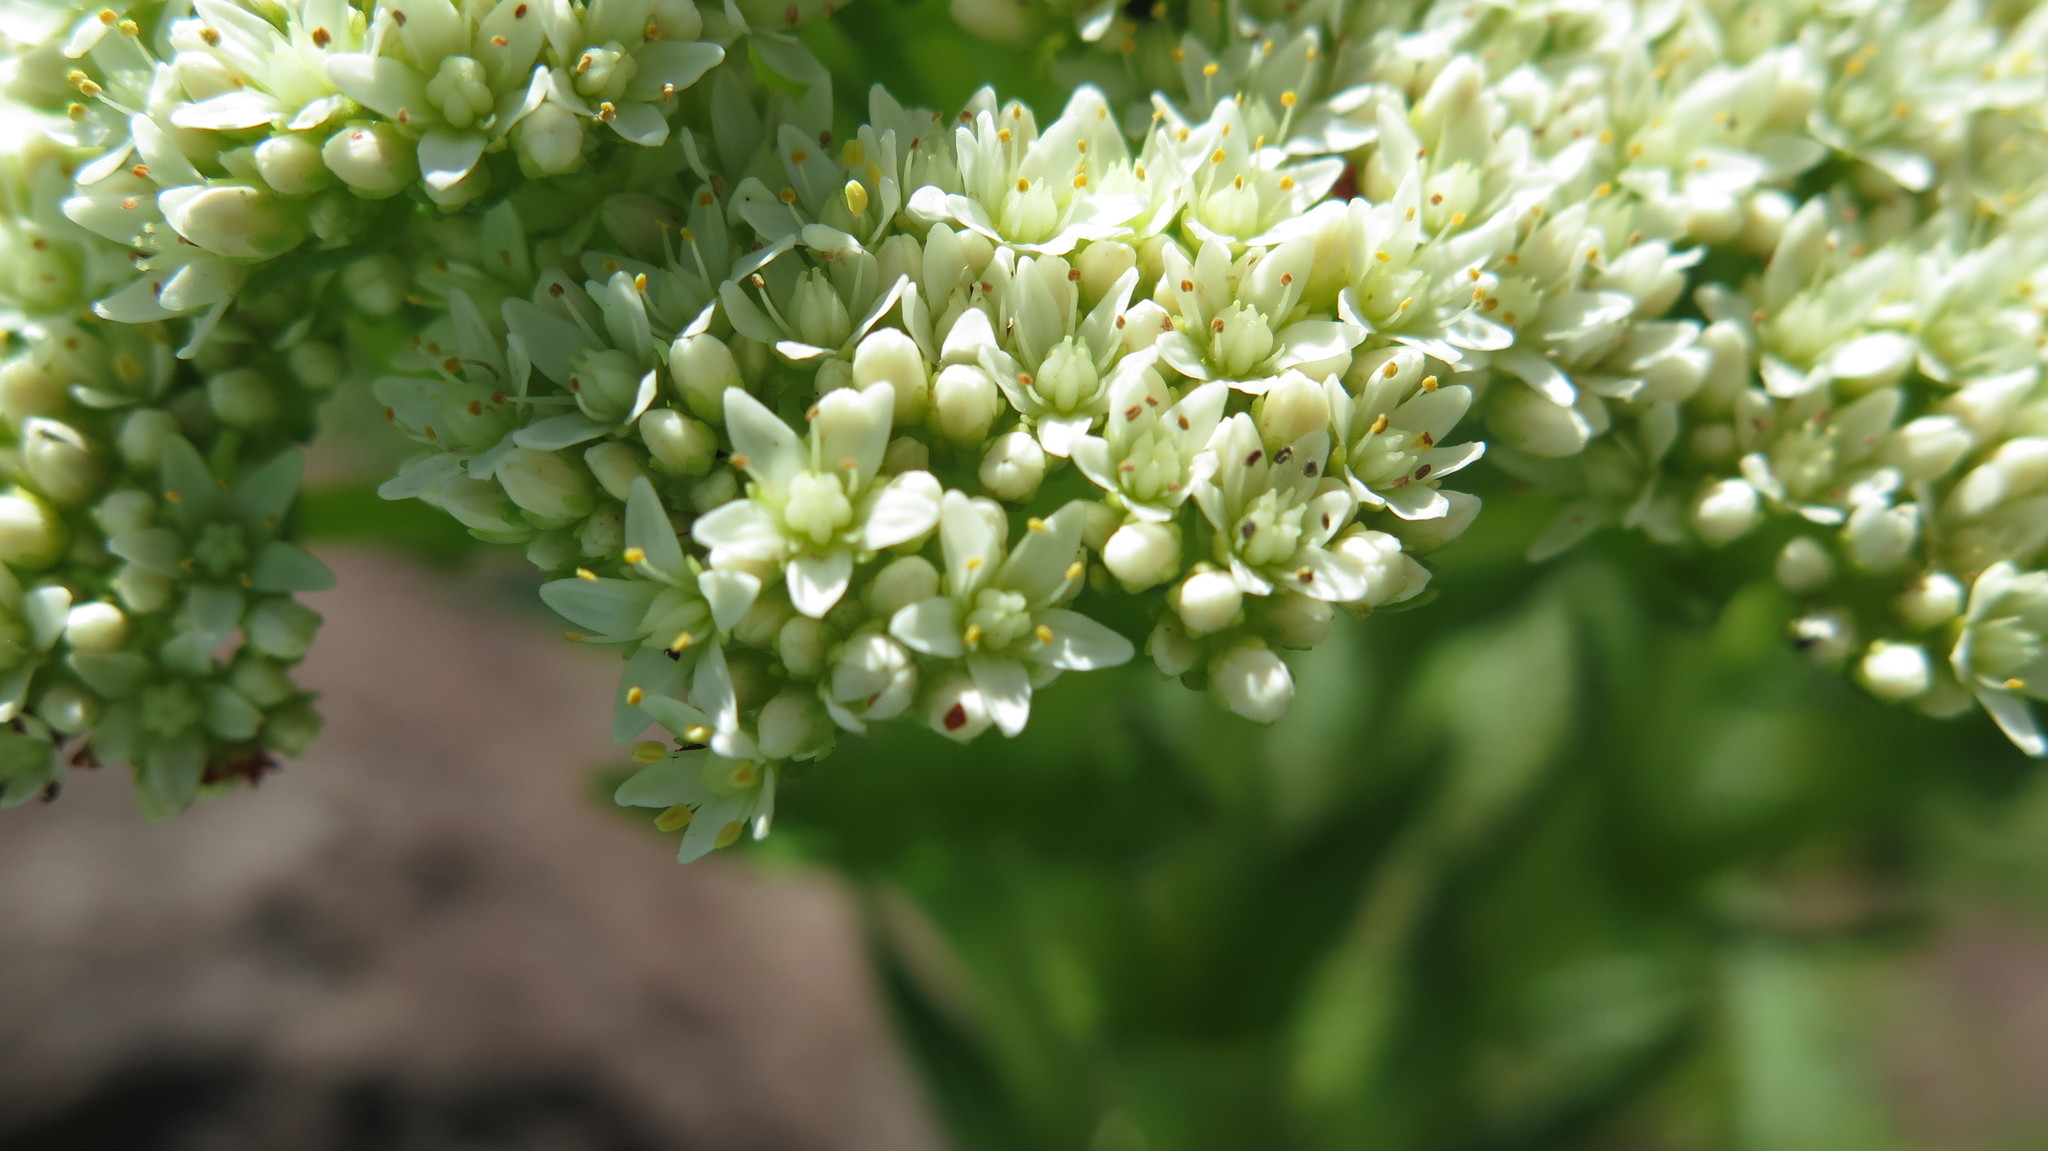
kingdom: Plantae
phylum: Tracheophyta
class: Magnoliopsida
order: Saxifragales
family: Crassulaceae
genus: Crassula
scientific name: Crassula vaginata
